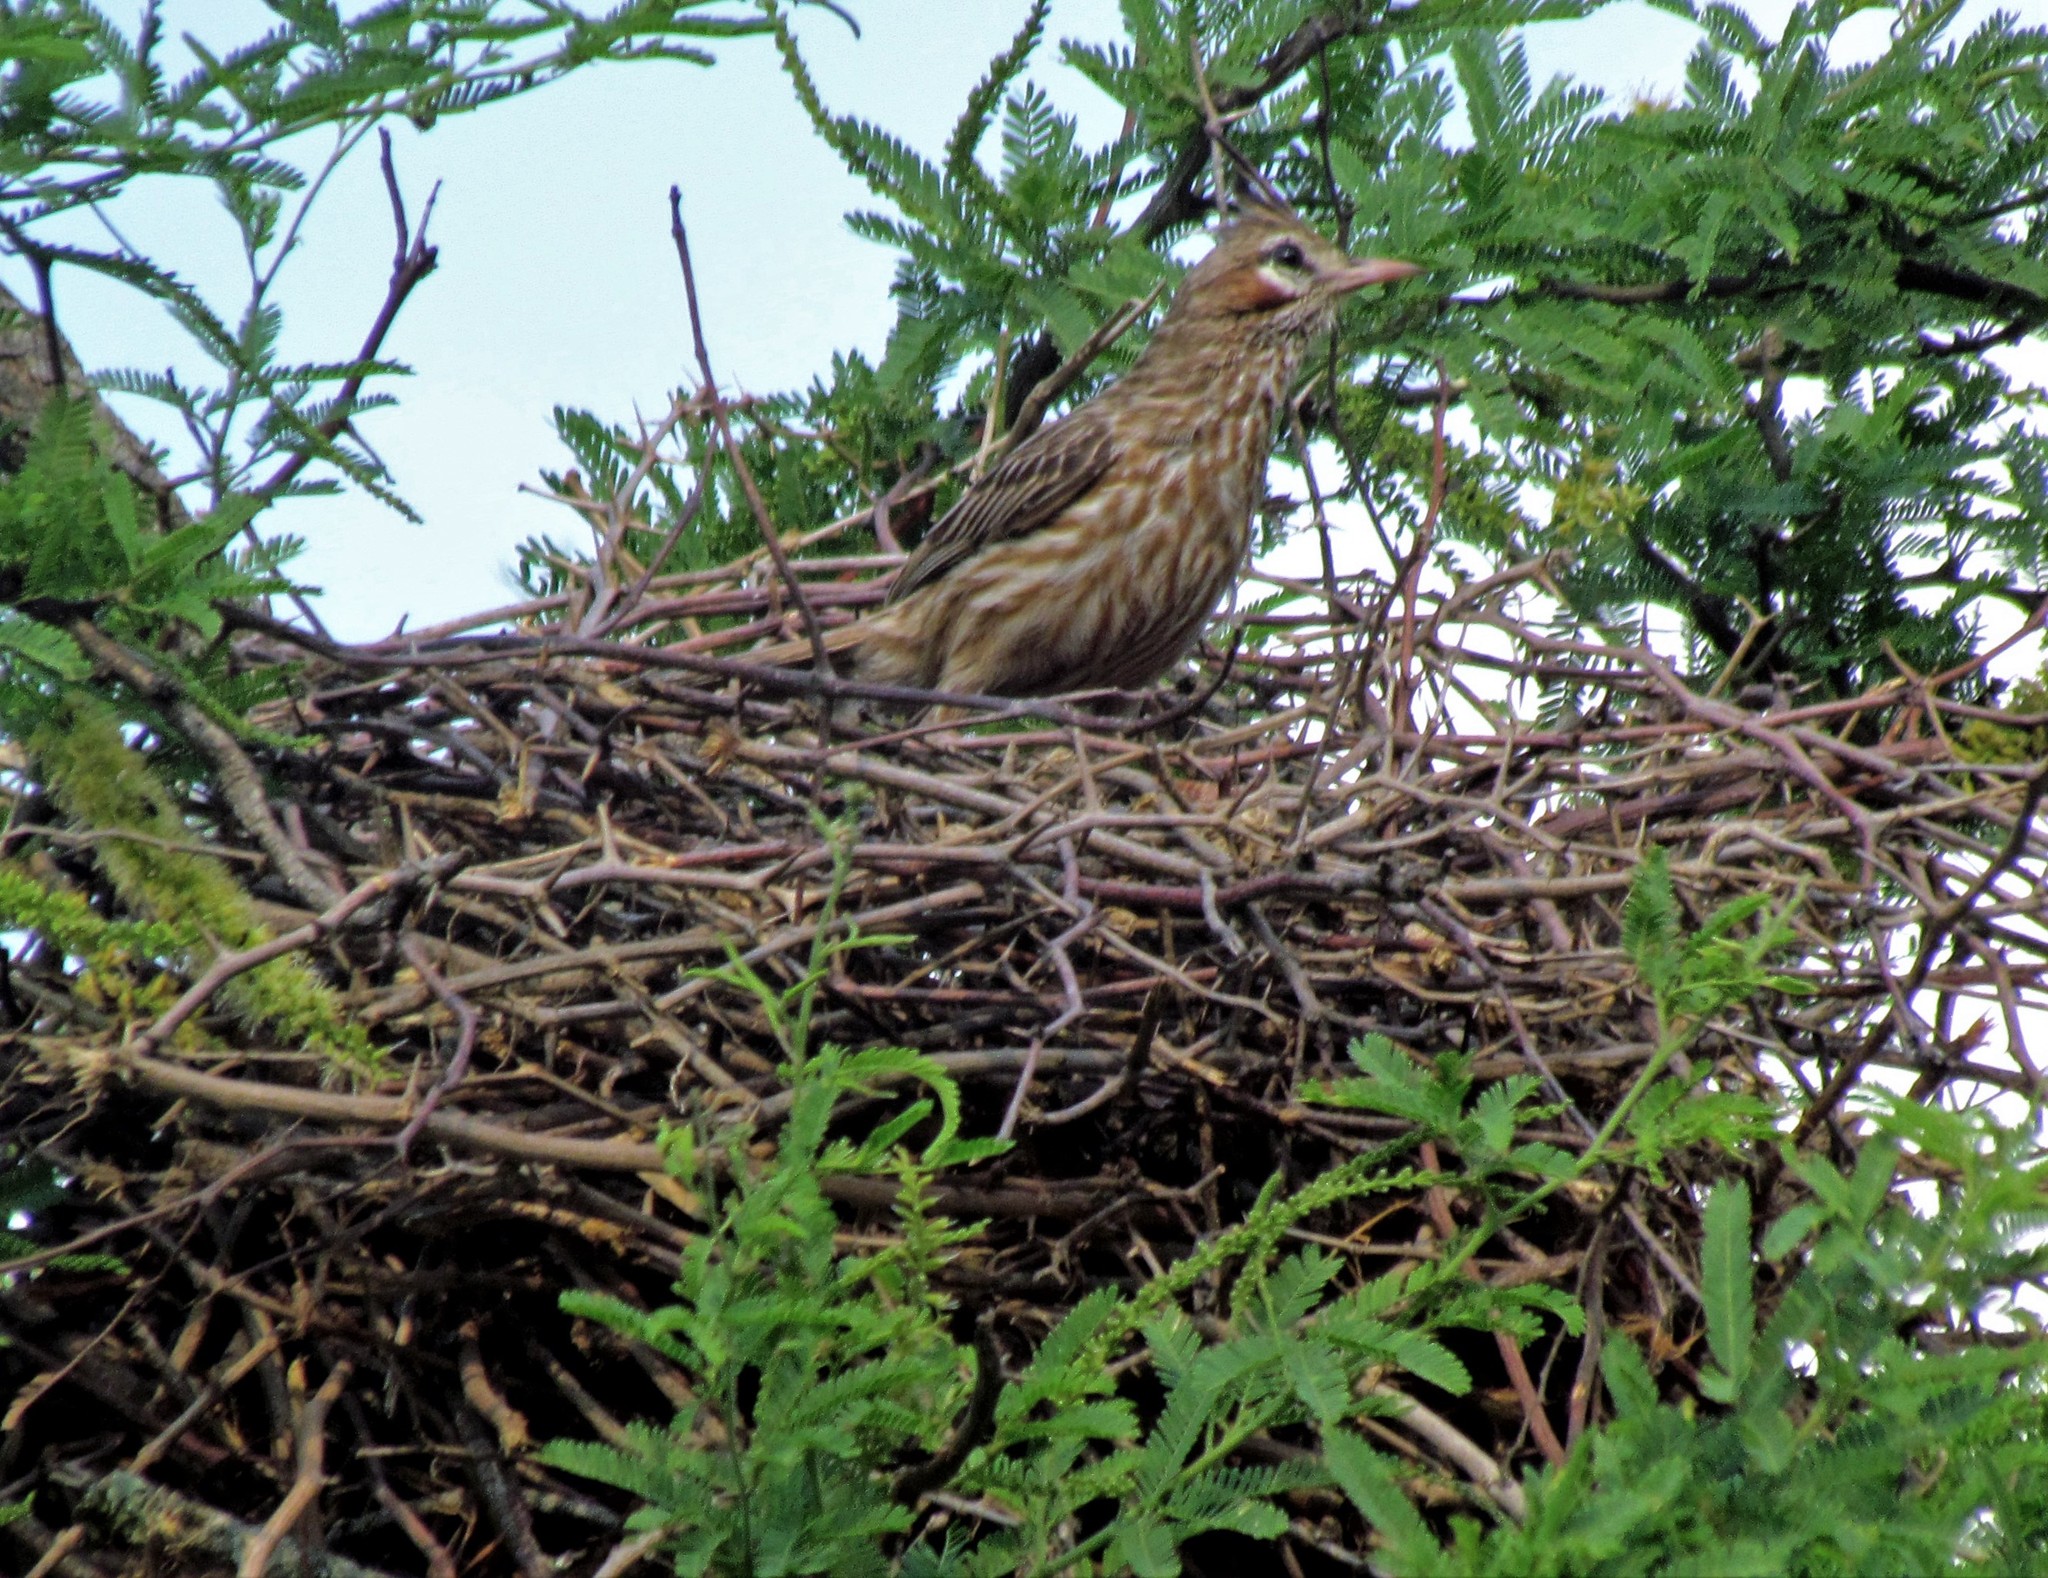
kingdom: Animalia
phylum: Chordata
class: Aves
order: Passeriformes
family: Furnariidae
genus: Coryphistera
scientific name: Coryphistera alaudina
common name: Lark-like brushrunner
